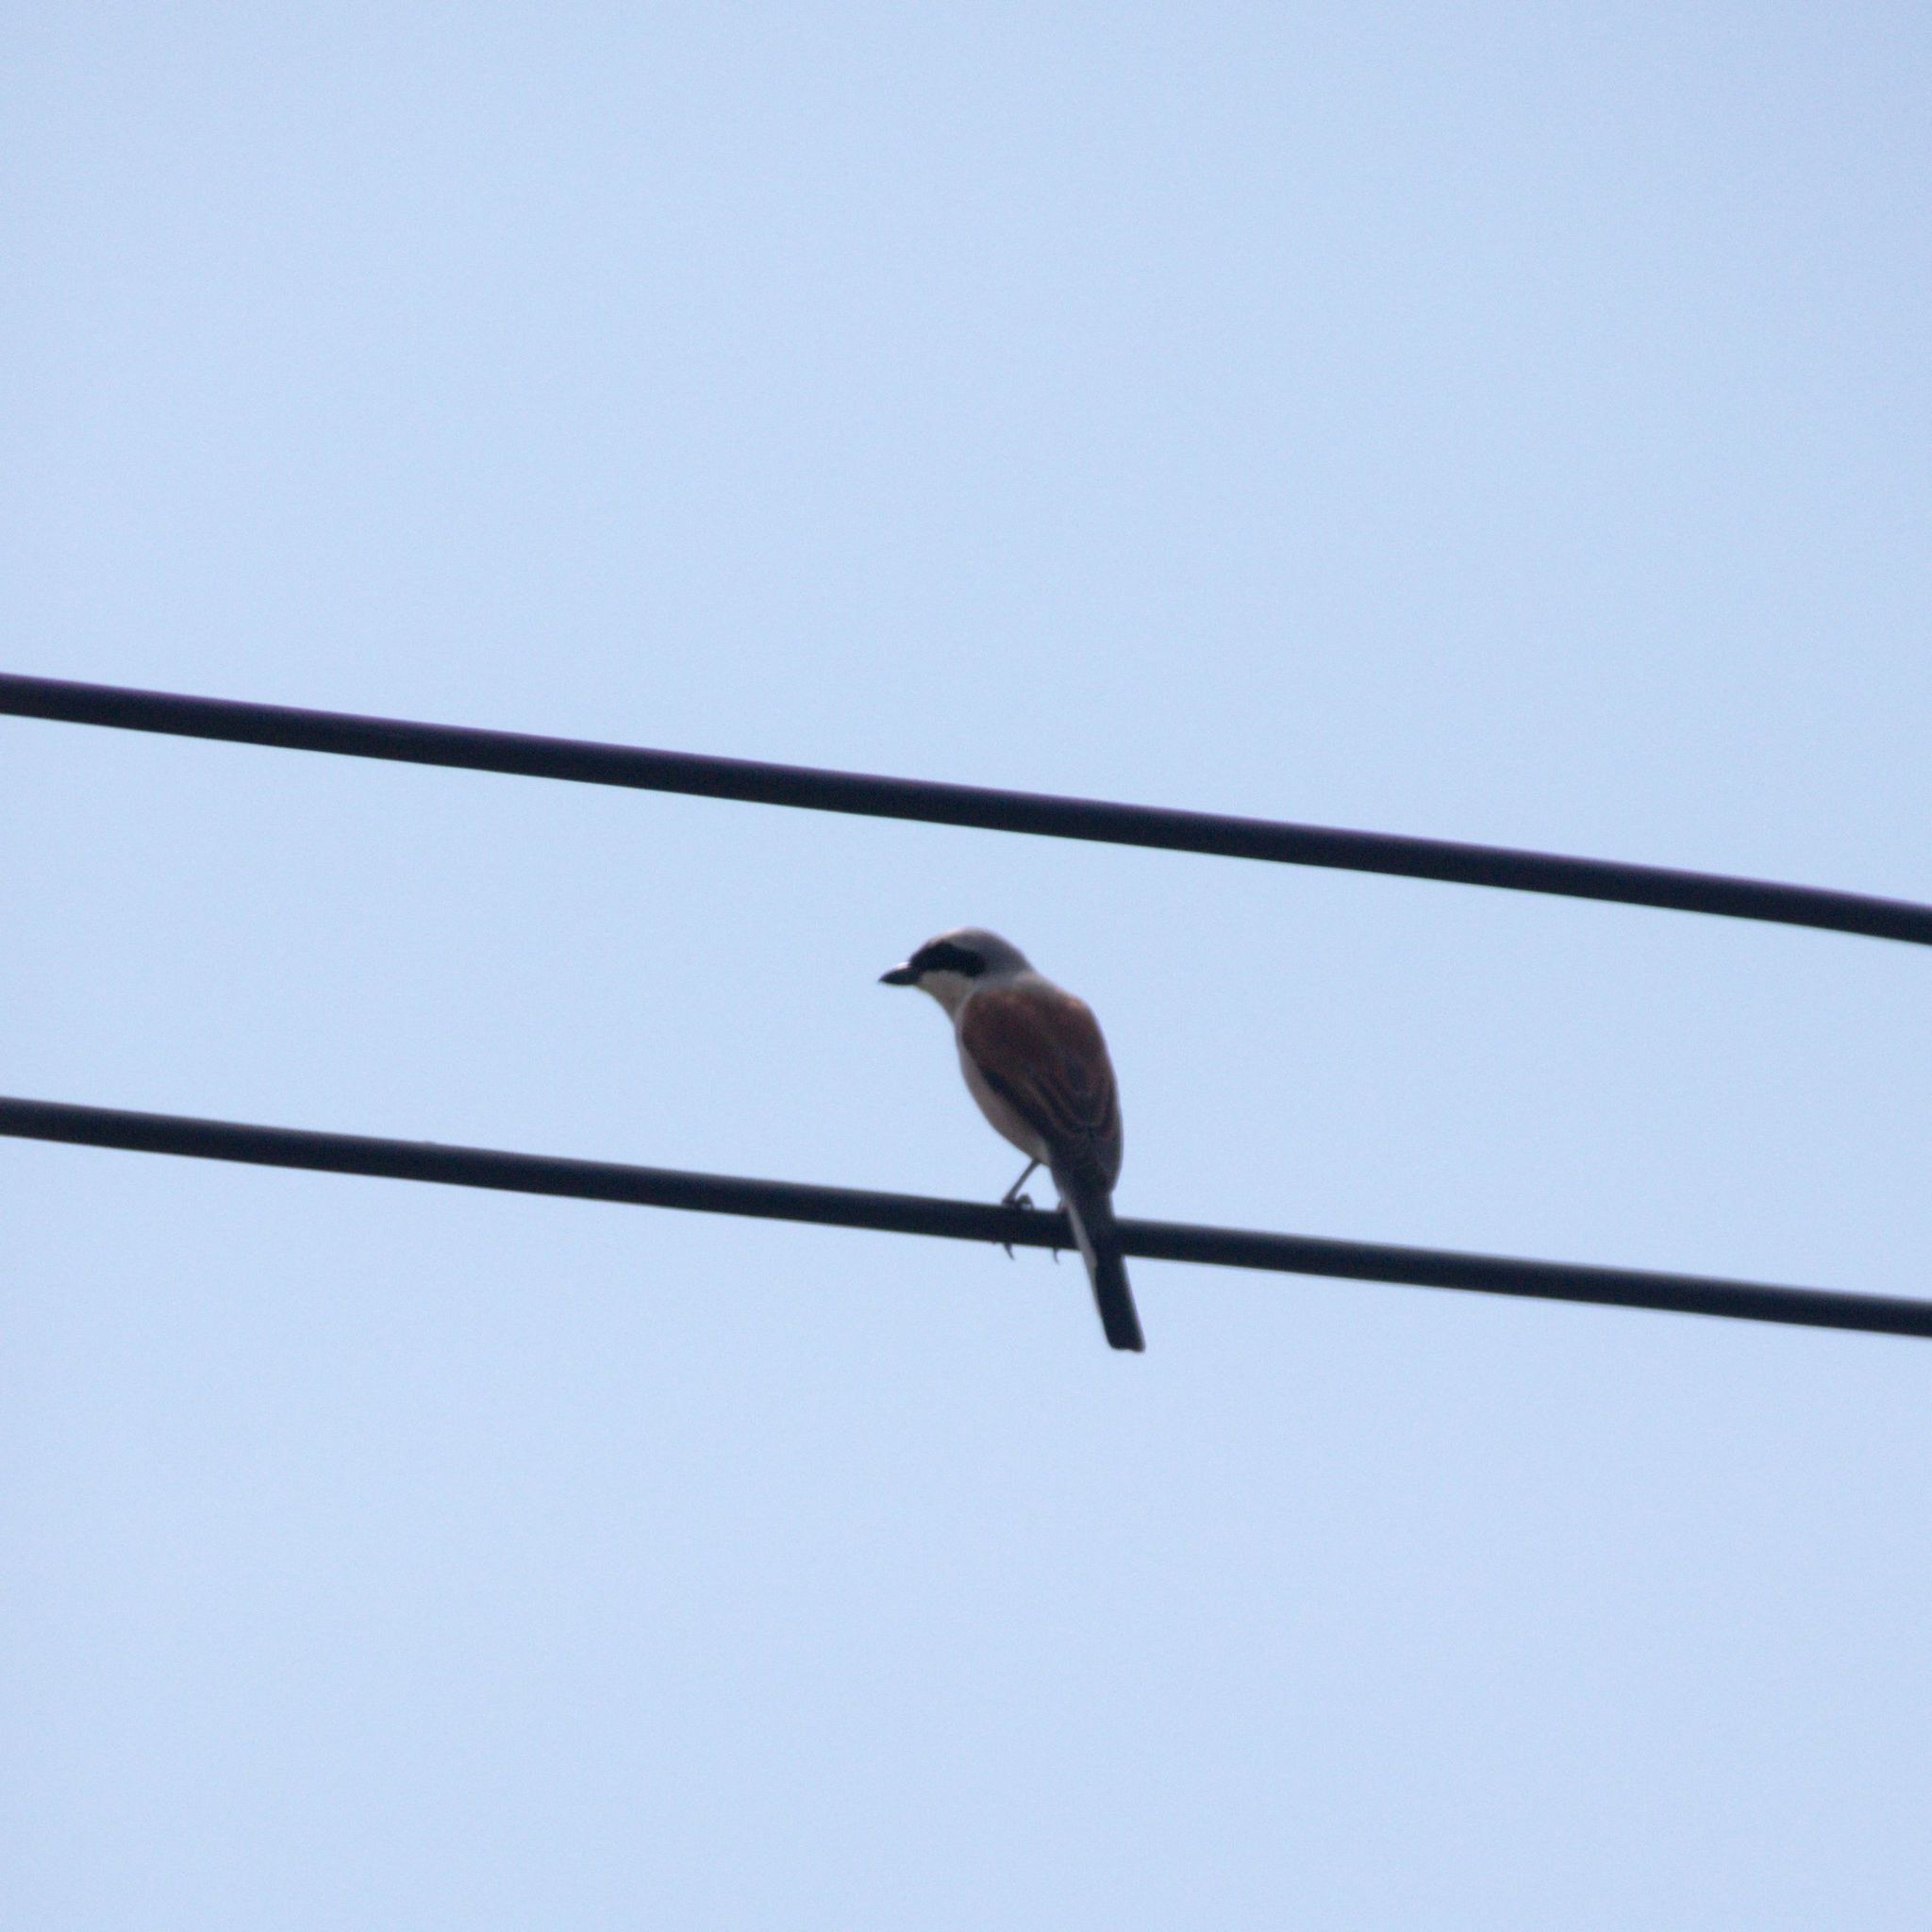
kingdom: Animalia
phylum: Chordata
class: Aves
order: Passeriformes
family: Laniidae
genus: Lanius
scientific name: Lanius collurio
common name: Red-backed shrike
